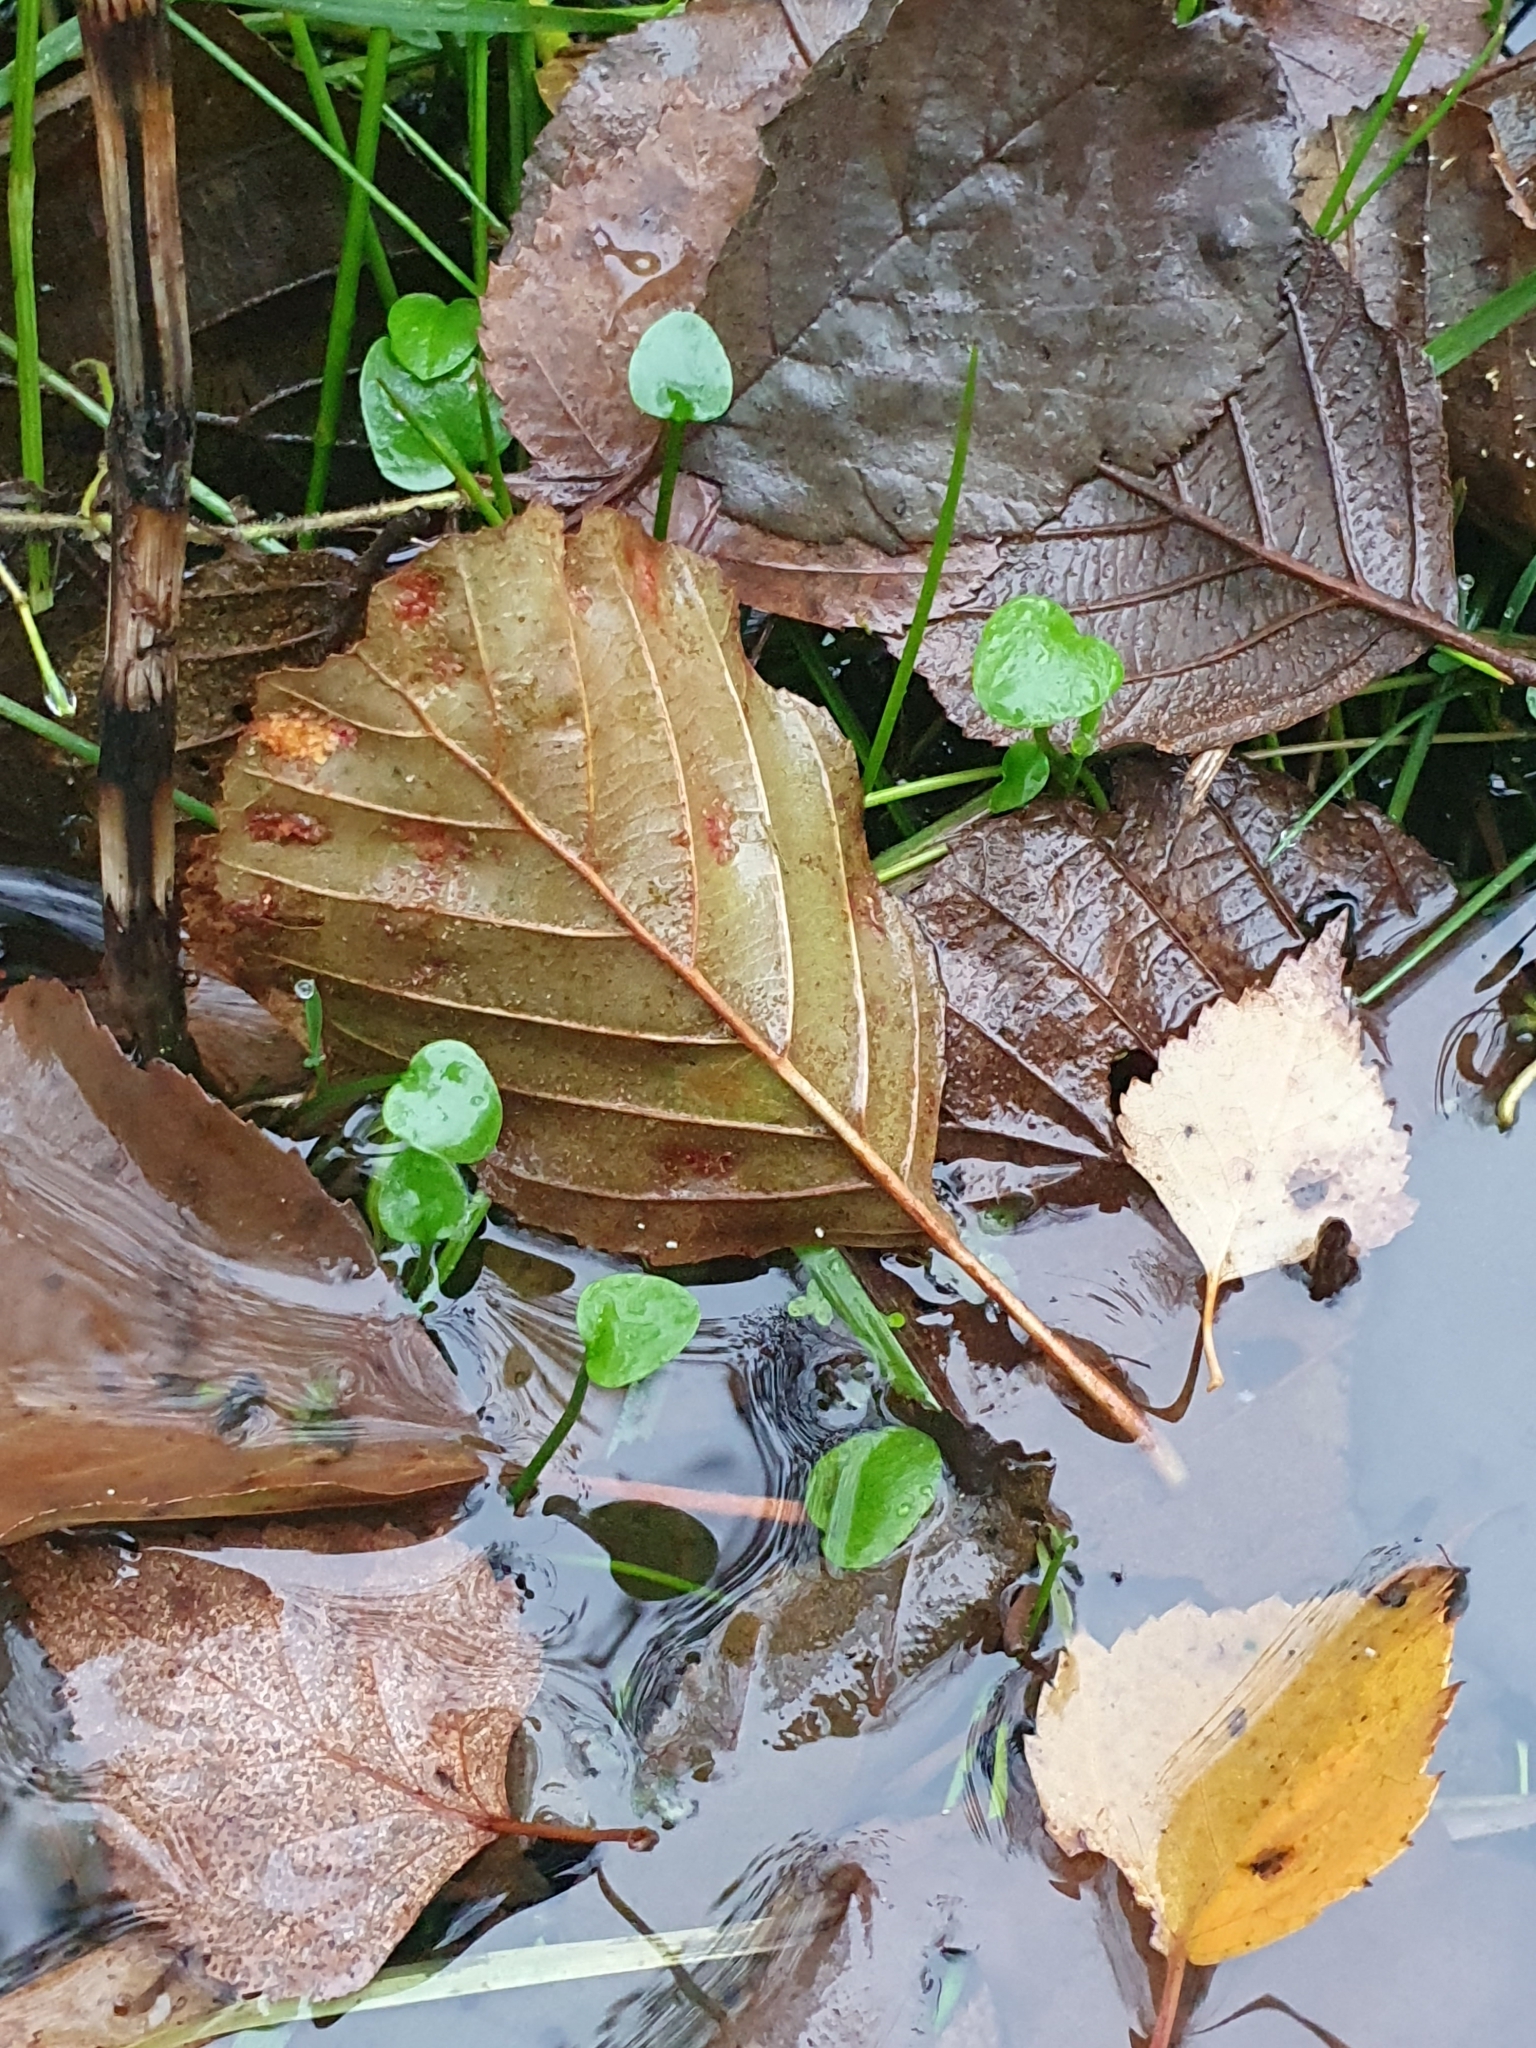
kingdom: Plantae
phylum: Tracheophyta
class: Magnoliopsida
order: Ranunculales
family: Ranunculaceae
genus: Ranunculus
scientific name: Ranunculus flammula
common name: Lesser spearwort
